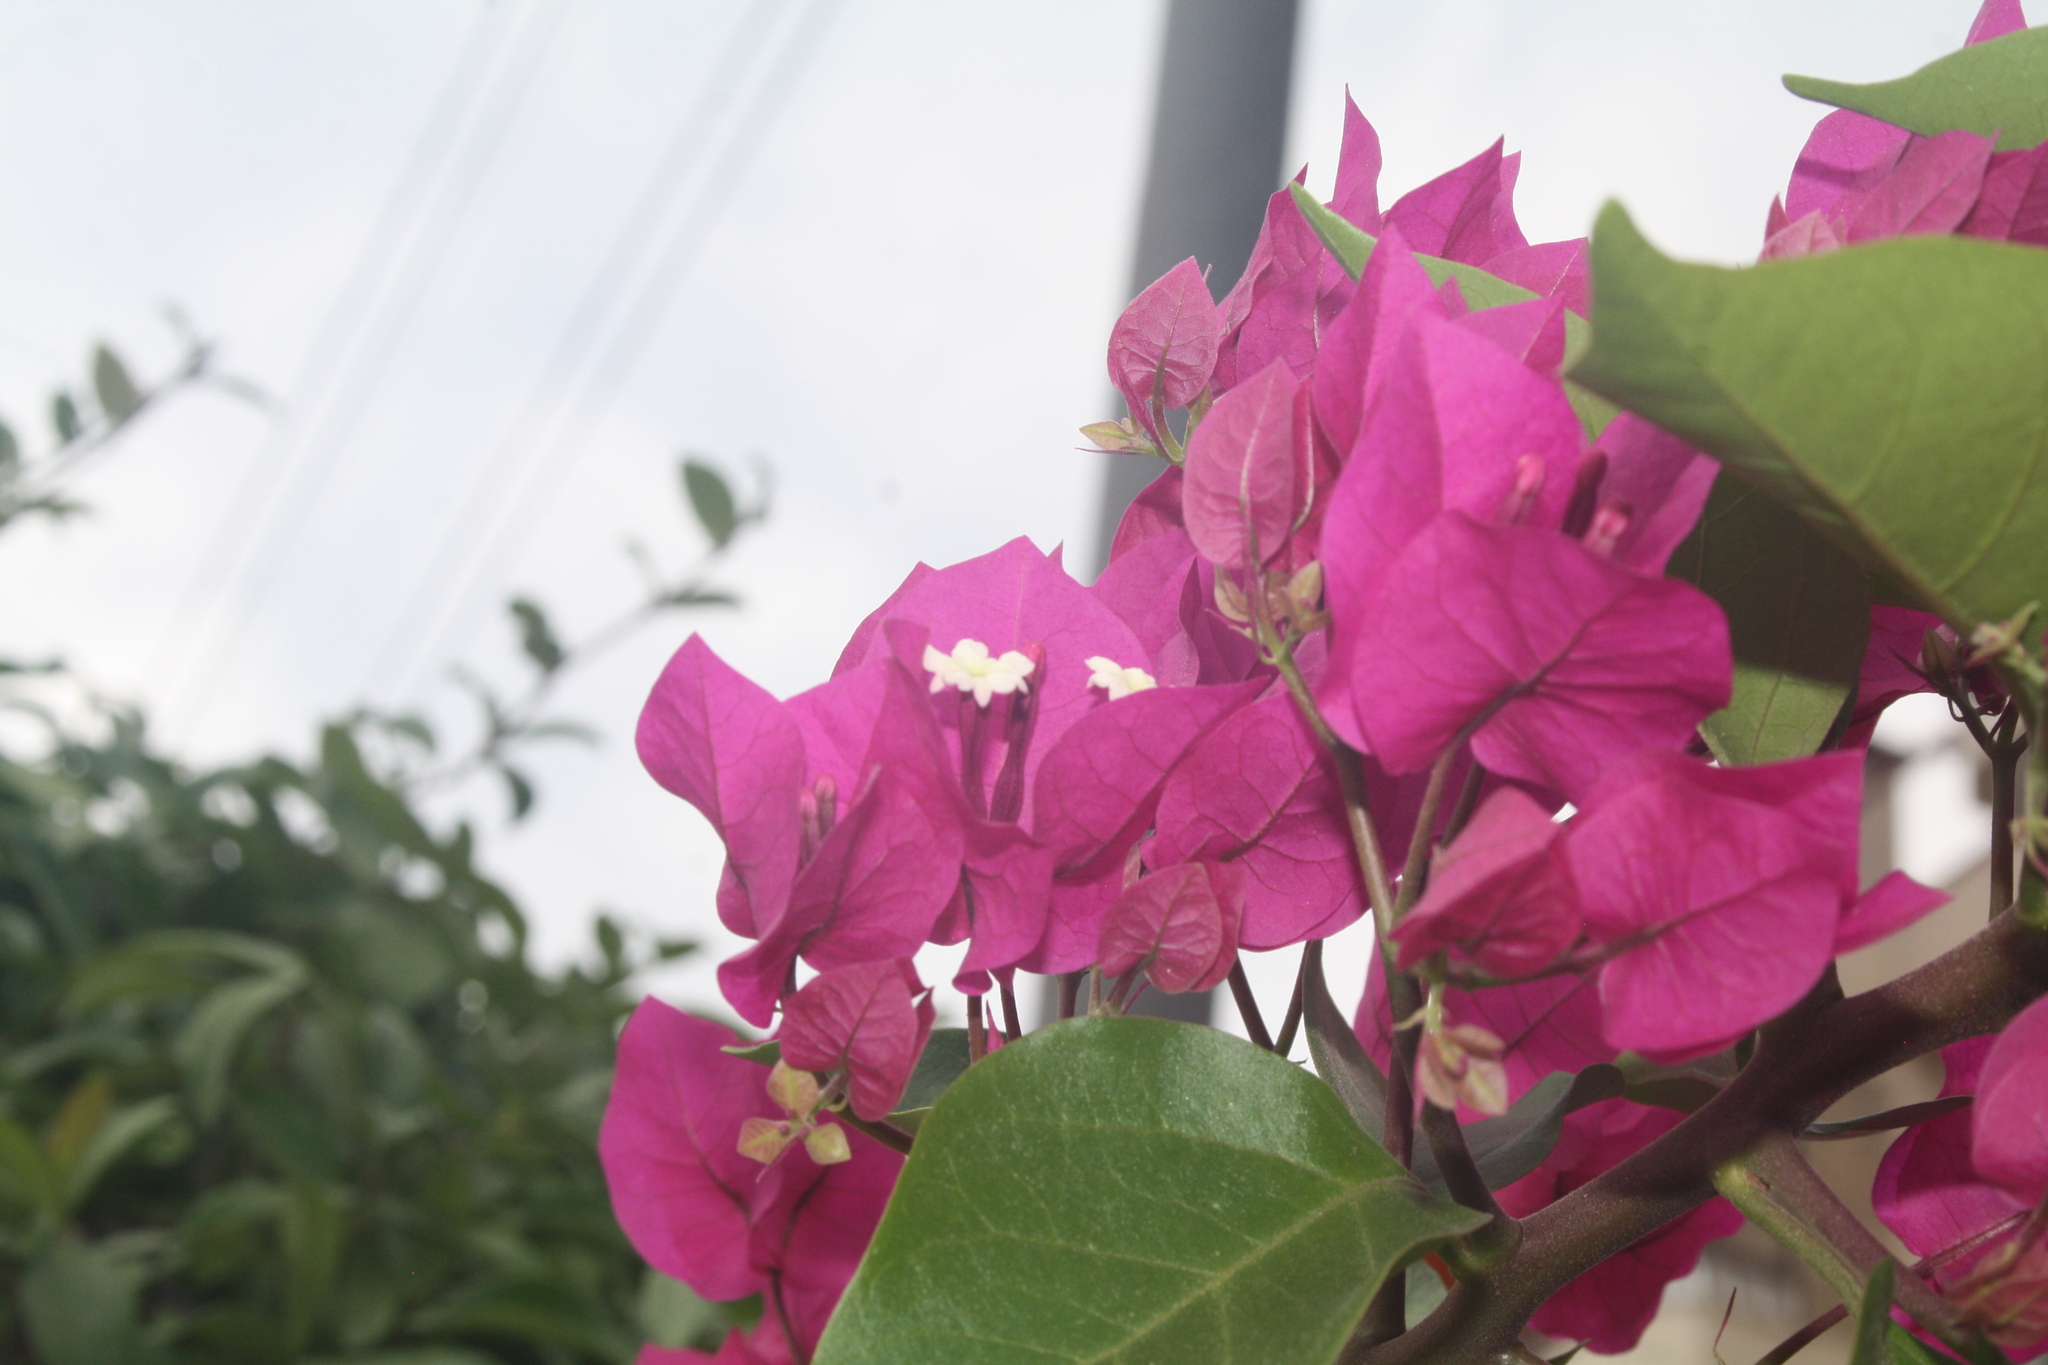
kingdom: Plantae
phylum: Tracheophyta
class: Magnoliopsida
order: Caryophyllales
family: Nyctaginaceae
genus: Bougainvillea
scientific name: Bougainvillea glabra
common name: Paperflower
